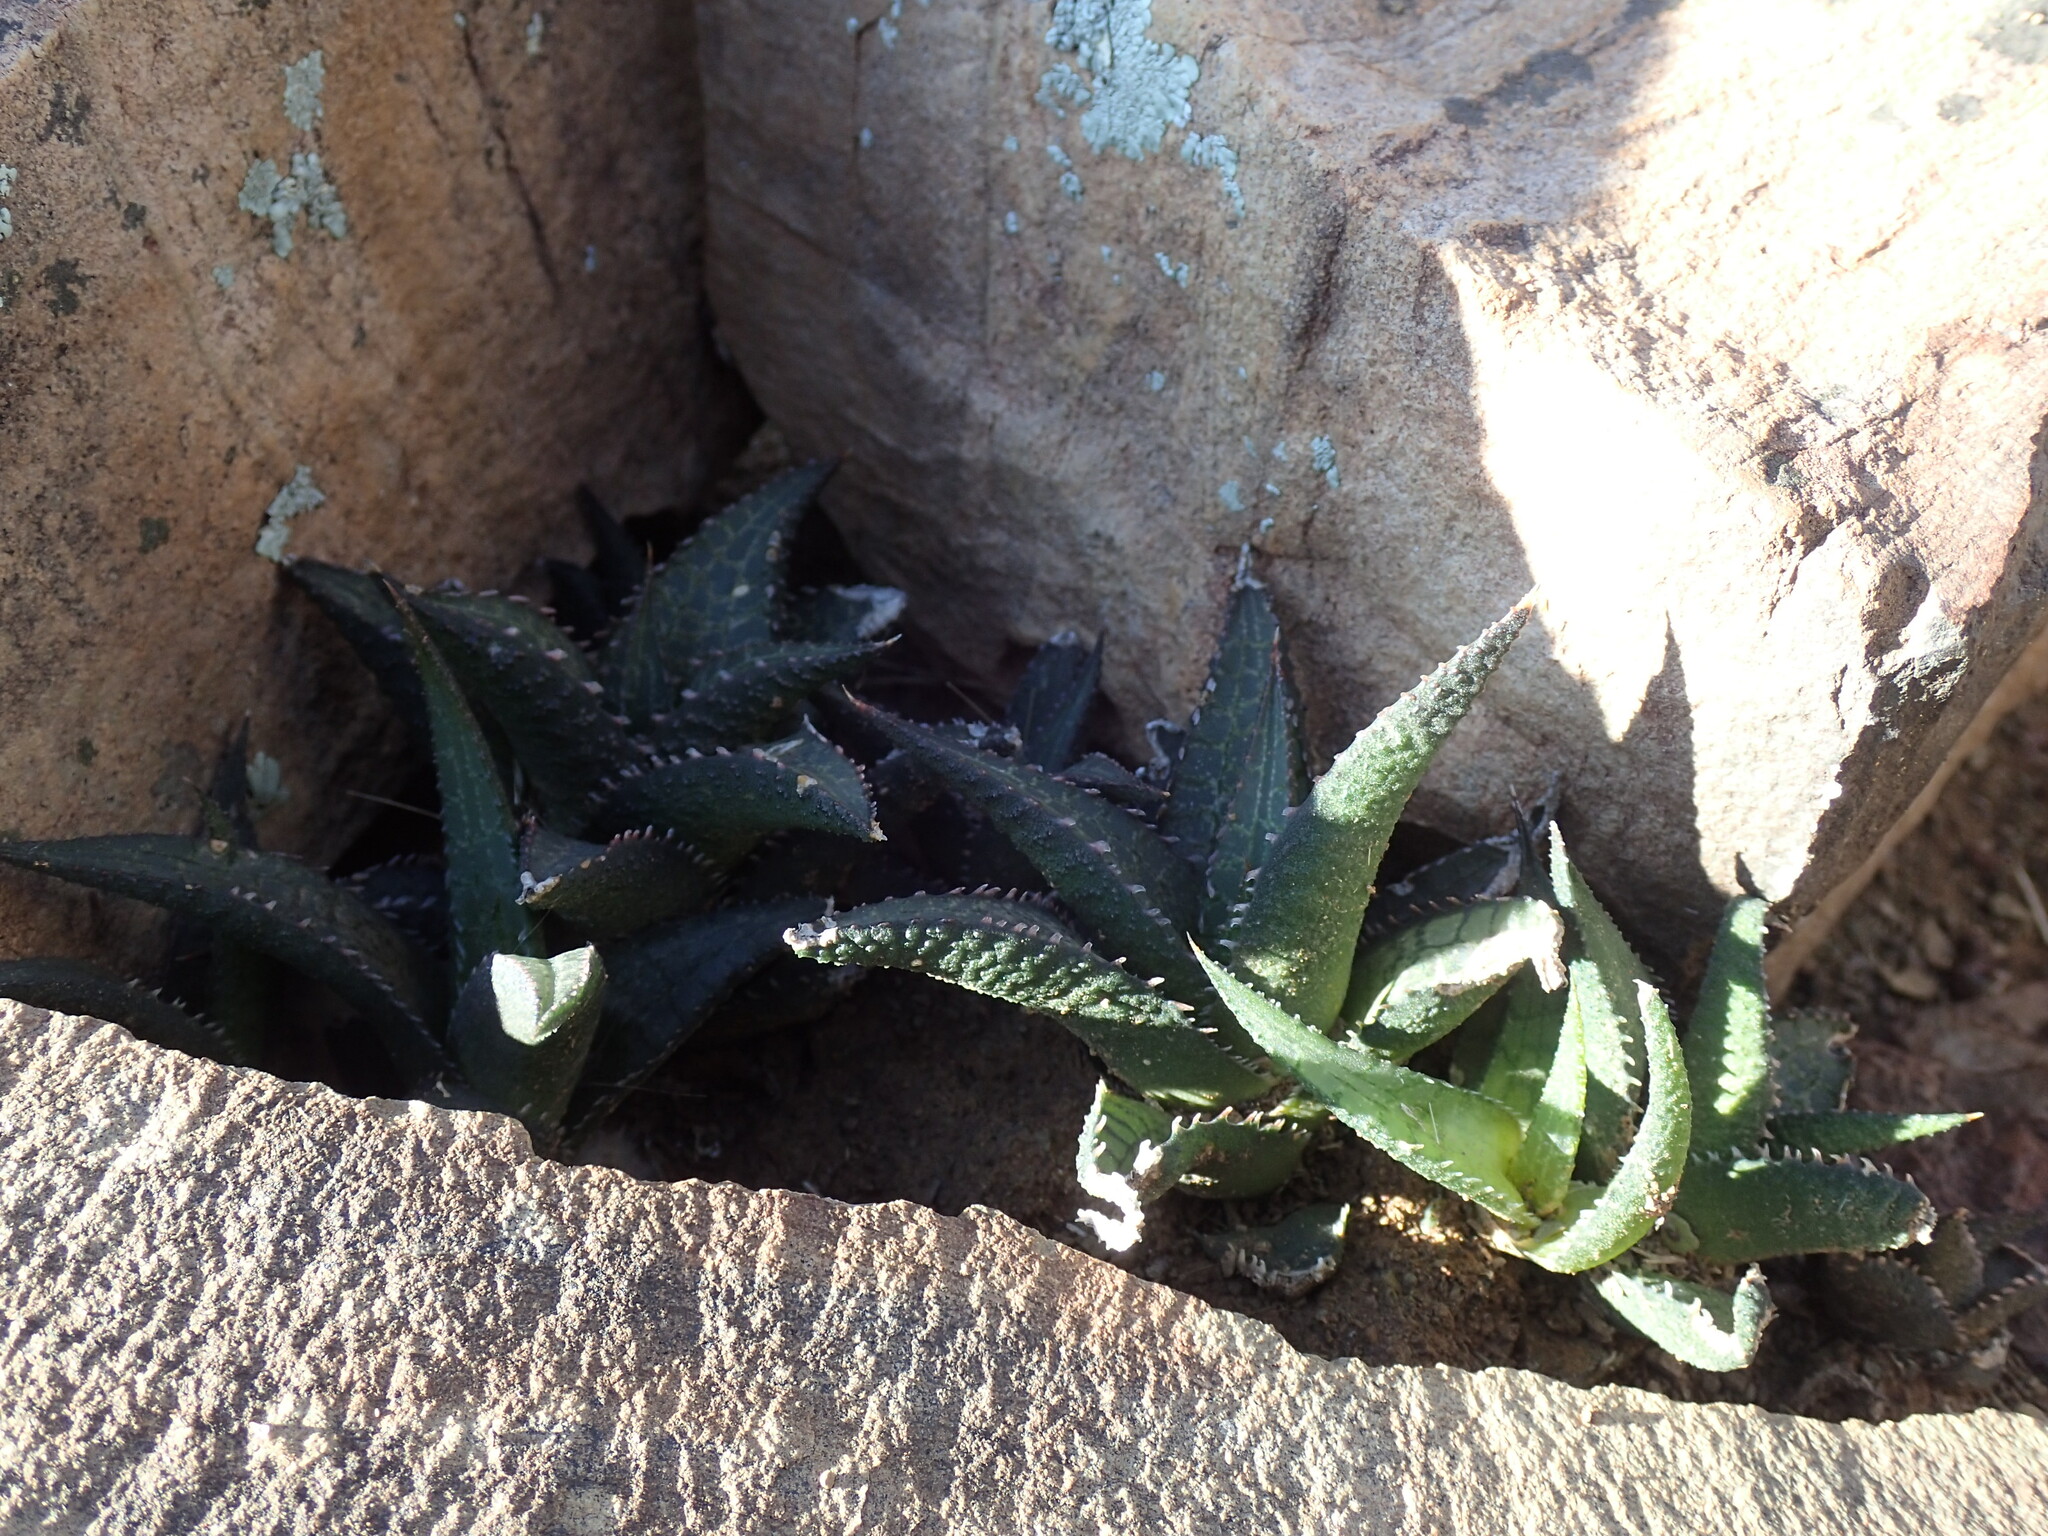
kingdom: Plantae
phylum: Tracheophyta
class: Liliopsida
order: Asparagales
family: Asphodelaceae
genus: Haworthiopsis
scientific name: Haworthiopsis tessellata
